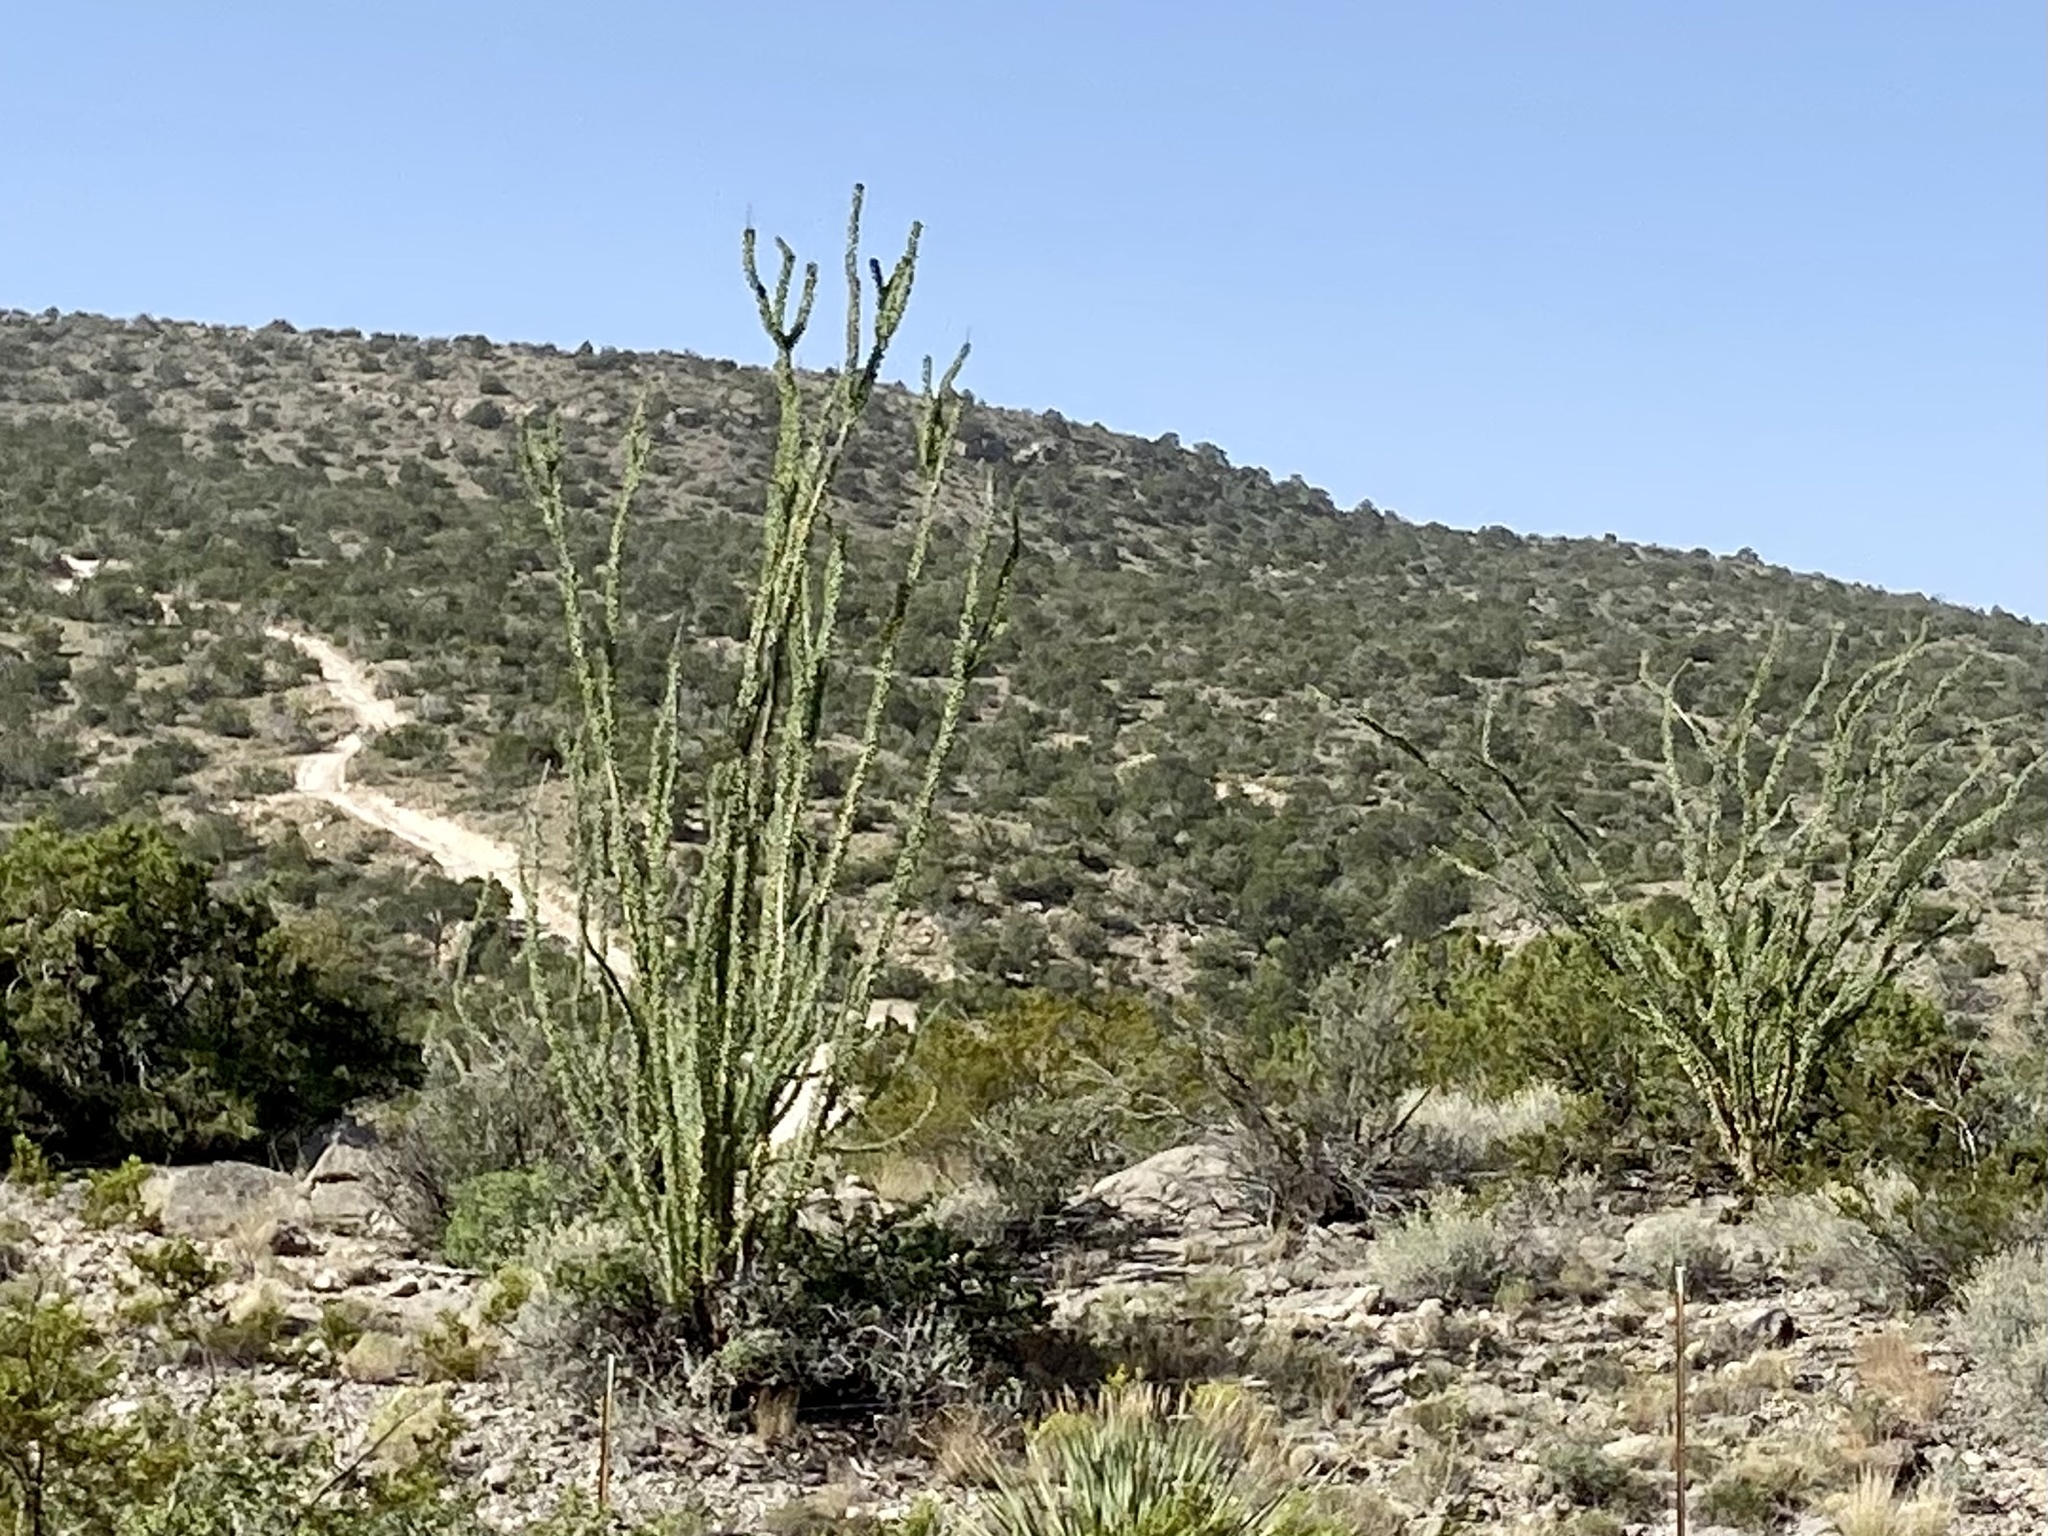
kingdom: Plantae
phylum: Tracheophyta
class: Magnoliopsida
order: Ericales
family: Fouquieriaceae
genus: Fouquieria
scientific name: Fouquieria splendens
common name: Vine-cactus
